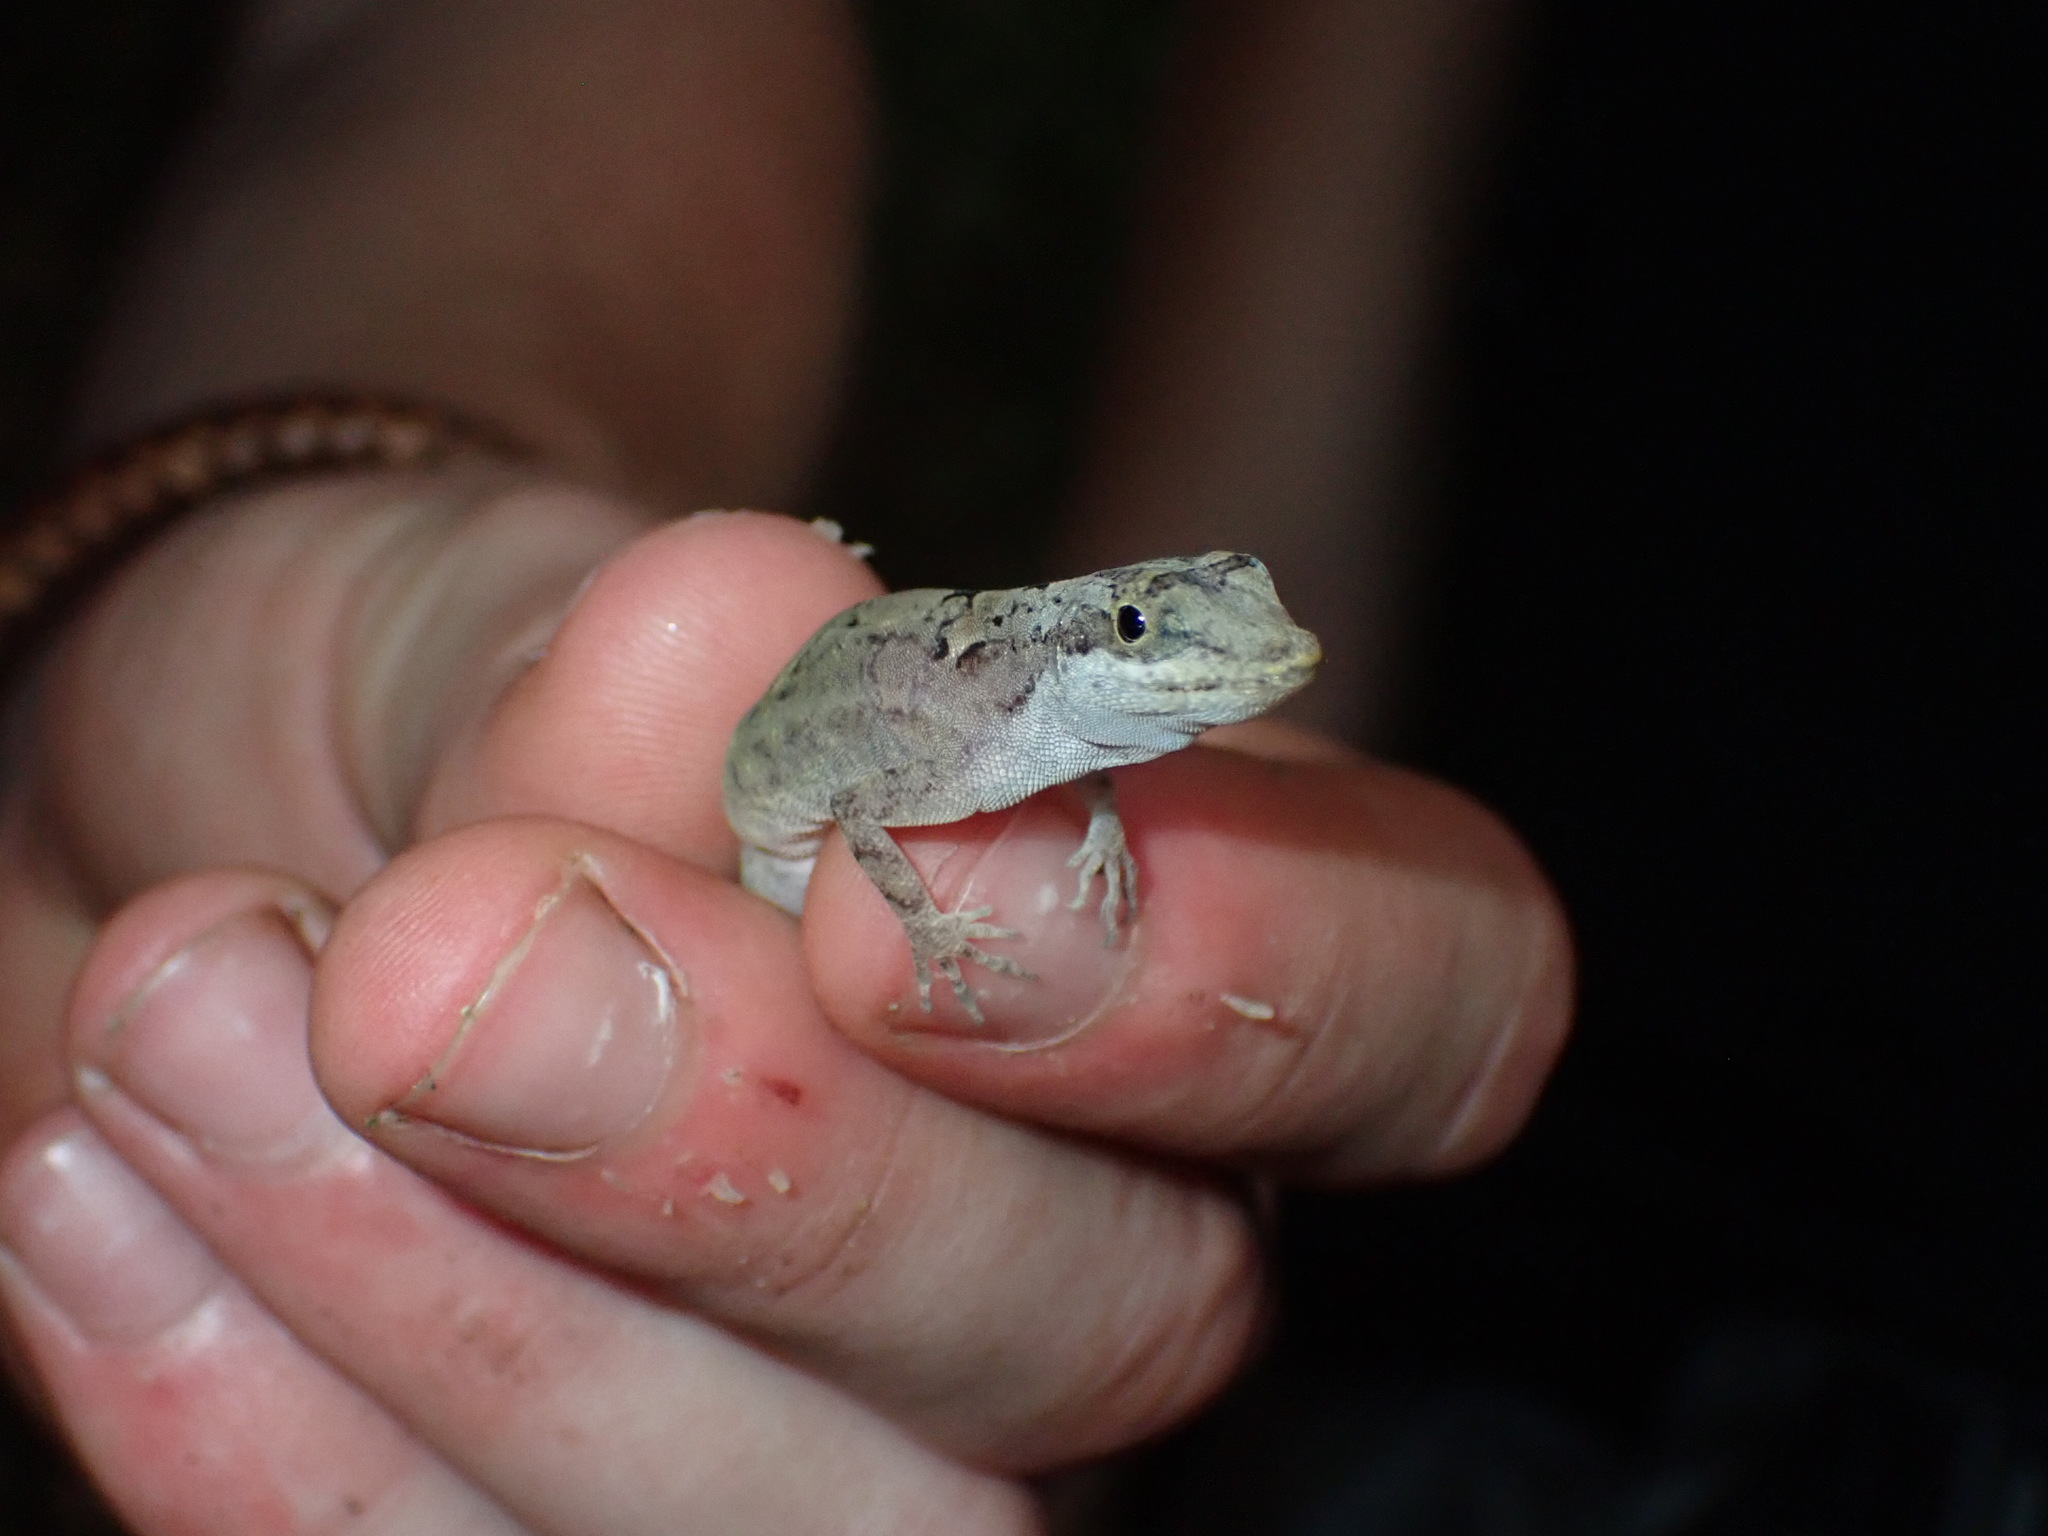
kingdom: Animalia
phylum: Chordata
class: Squamata
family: Dactyloidae
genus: Anolis
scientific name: Anolis rodriguezii
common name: Middle american smooth anole
